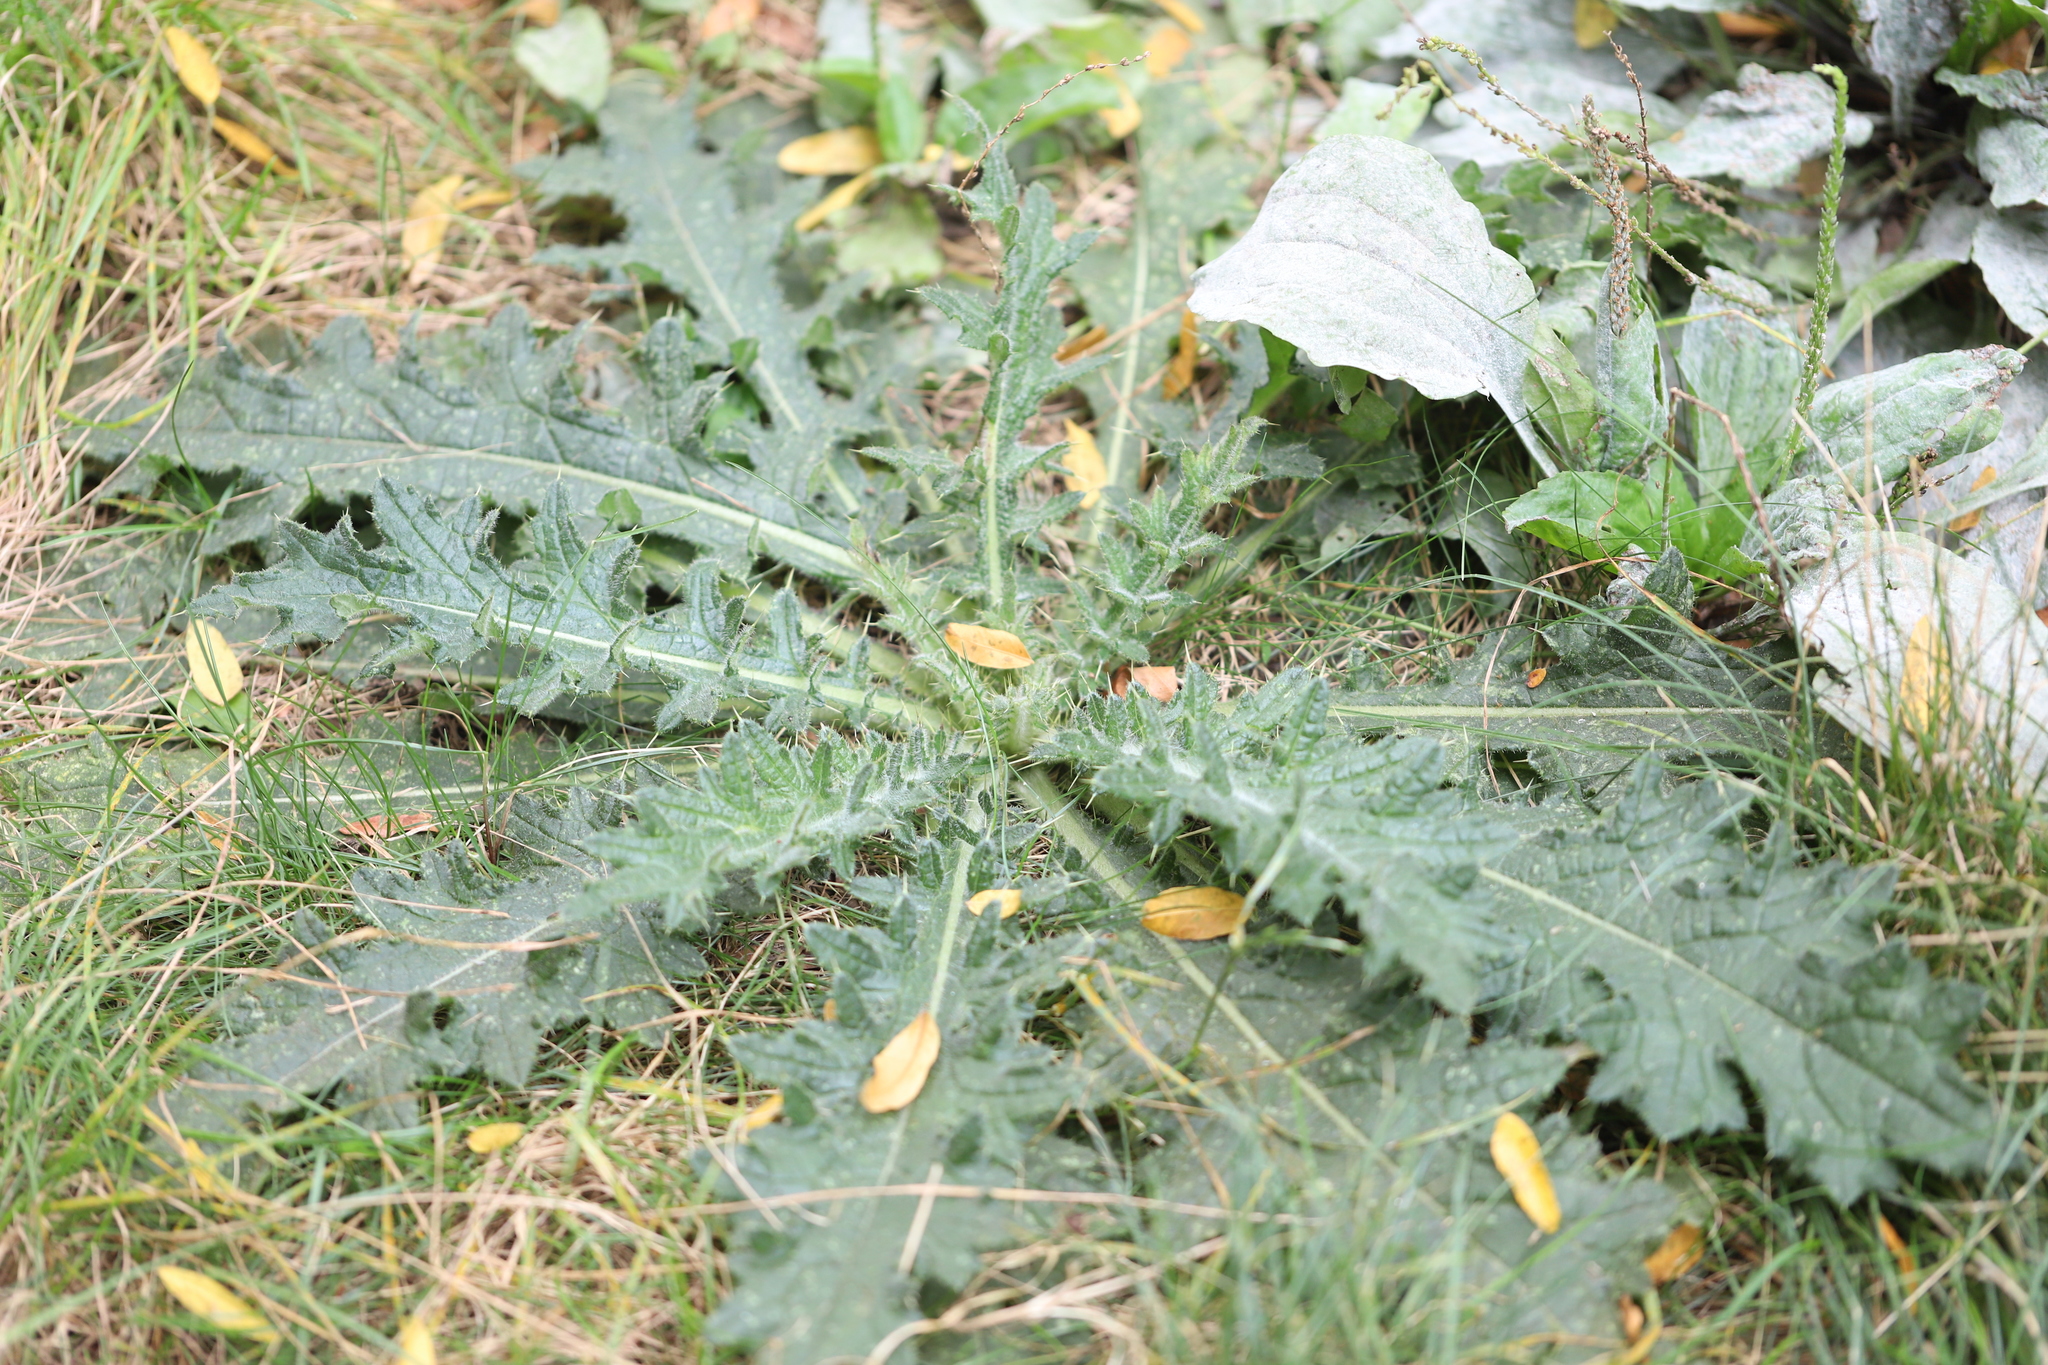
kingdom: Plantae
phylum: Tracheophyta
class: Magnoliopsida
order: Asterales
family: Asteraceae
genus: Cirsium
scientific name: Cirsium vulgare
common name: Bull thistle
